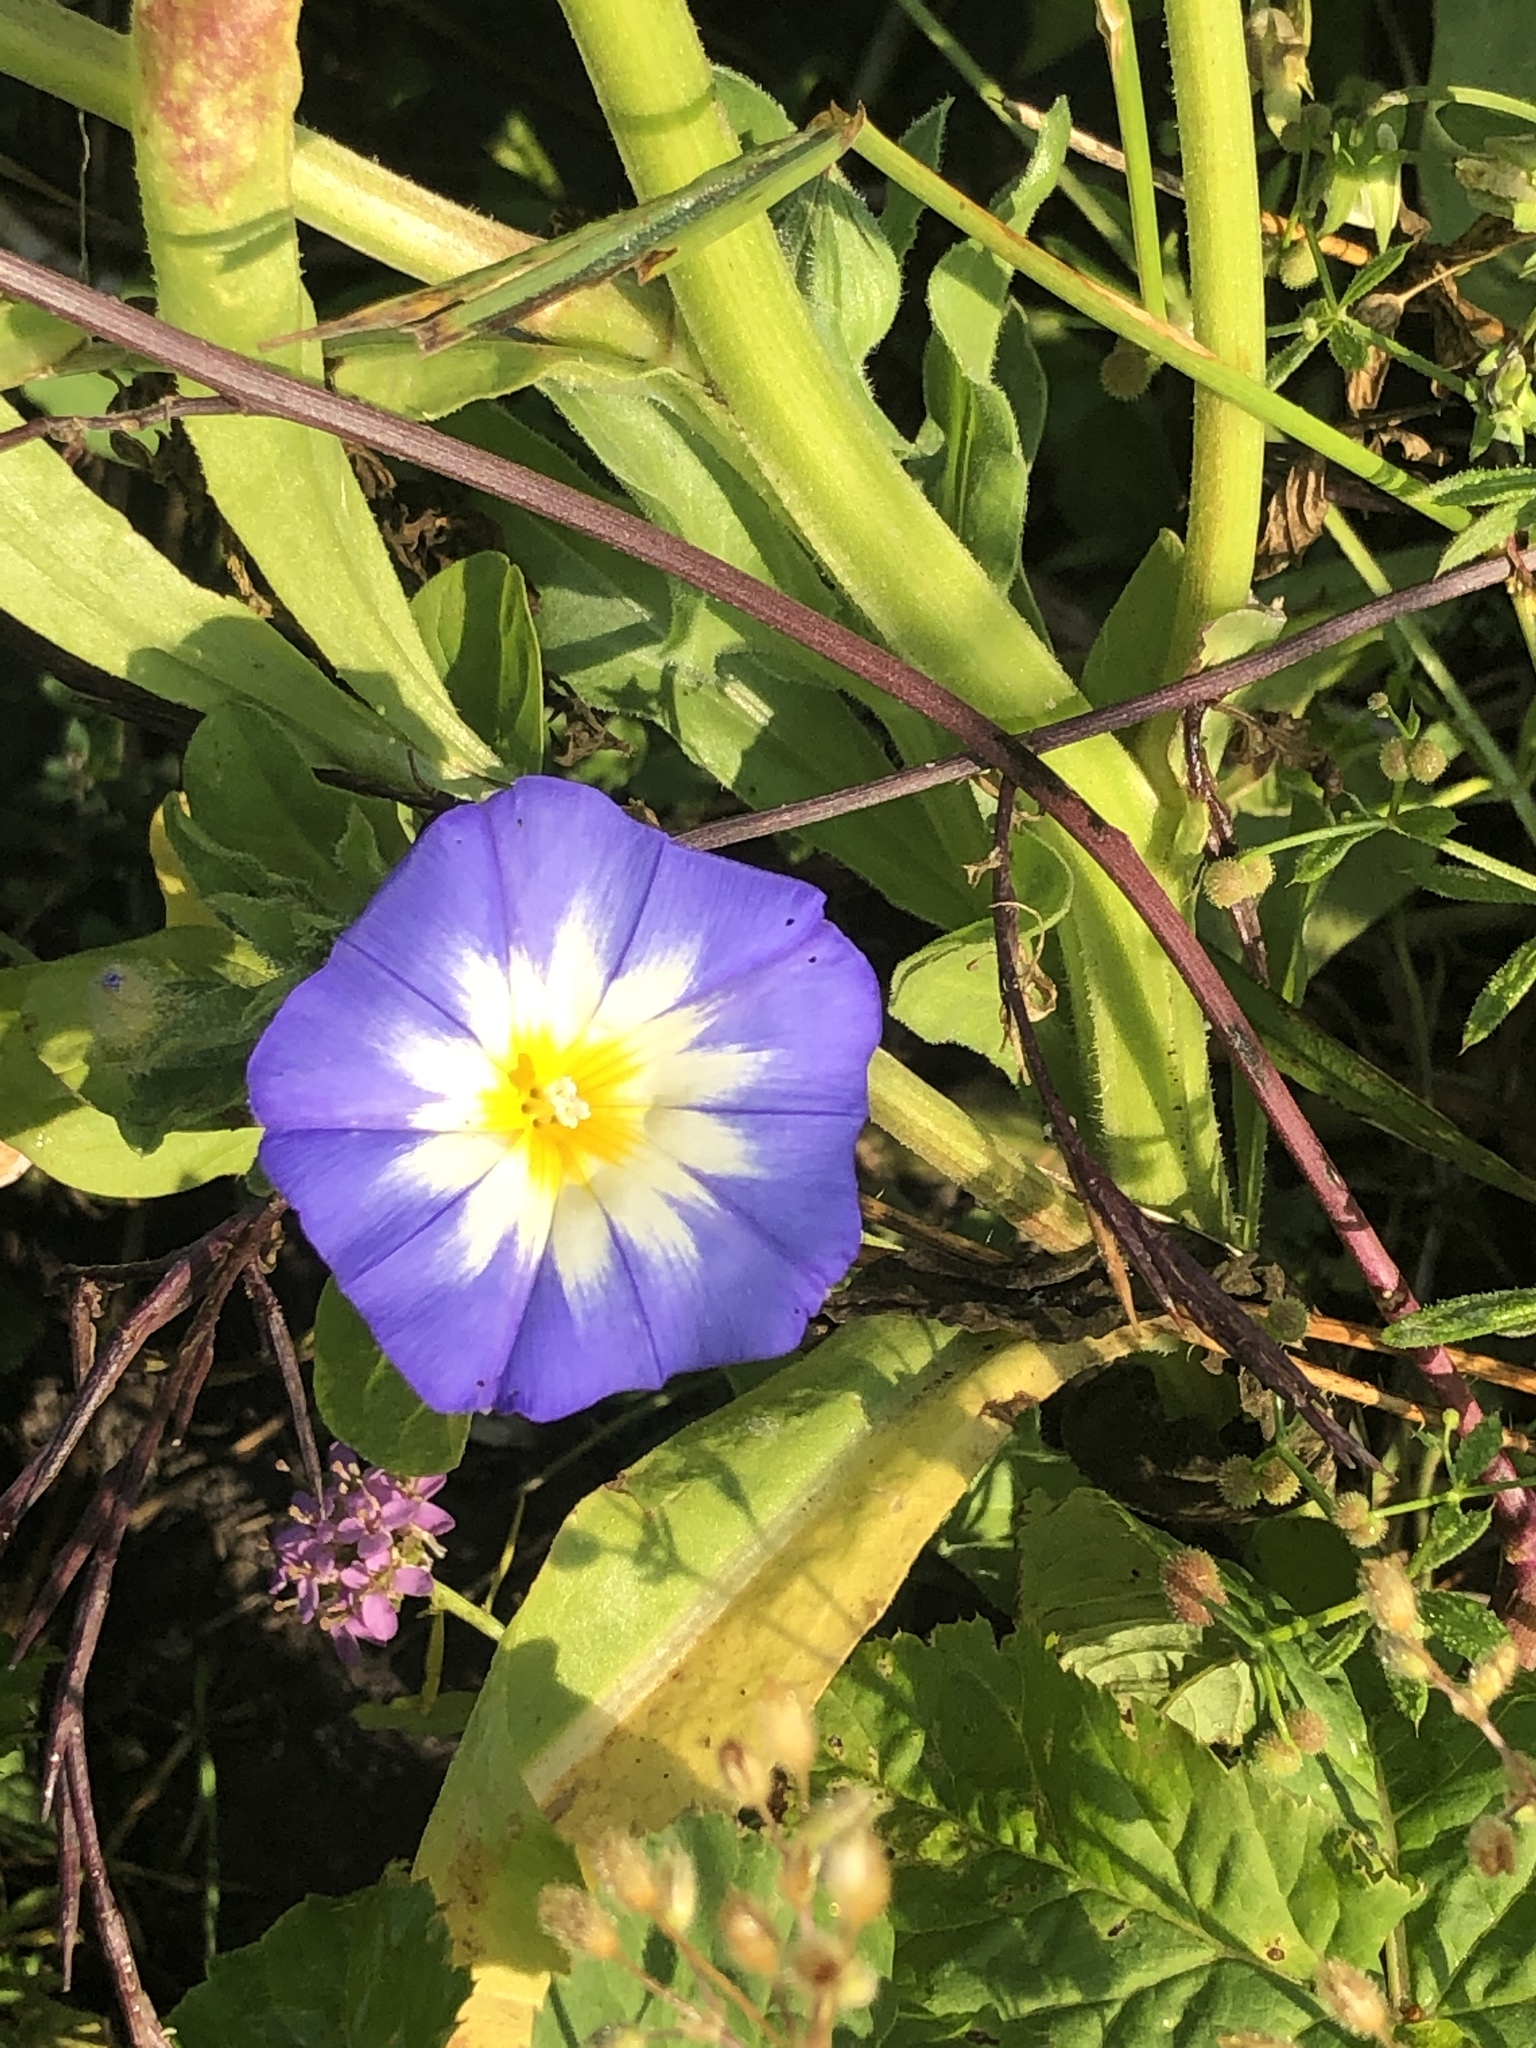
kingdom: Plantae
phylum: Tracheophyta
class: Magnoliopsida
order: Solanales
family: Convolvulaceae
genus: Convolvulus
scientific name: Convolvulus tricolor
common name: Dwarf morning-glory
